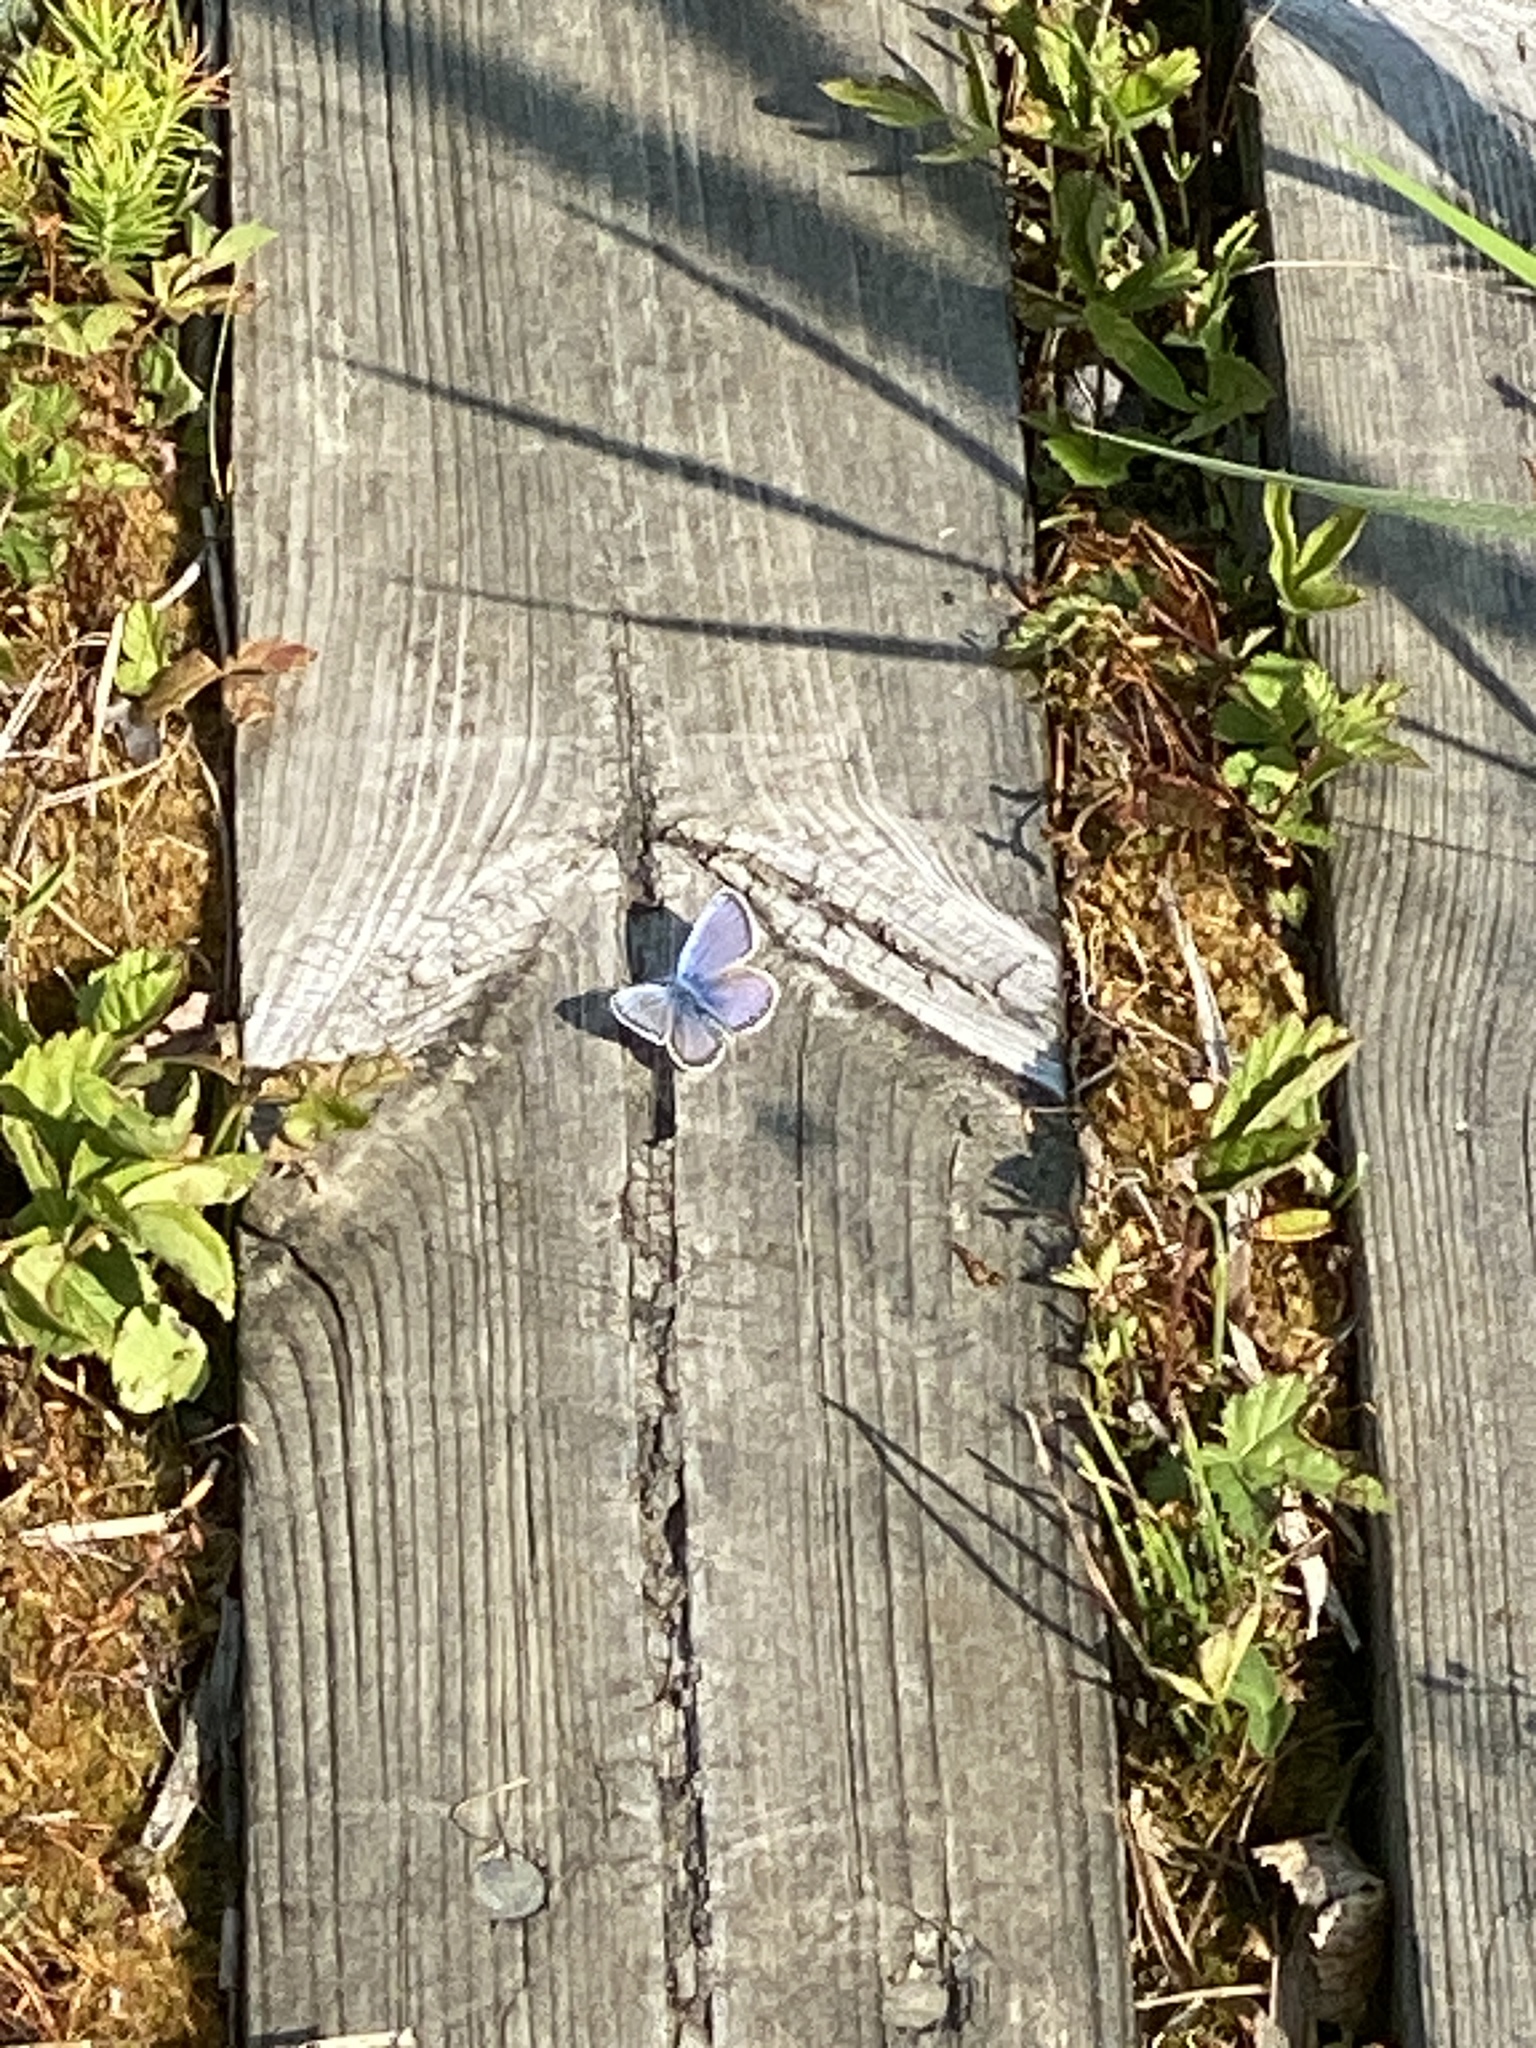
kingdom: Animalia
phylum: Arthropoda
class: Insecta
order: Lepidoptera
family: Lycaenidae
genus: Plebejus
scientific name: Plebejus argus
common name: Silver-studded blue
